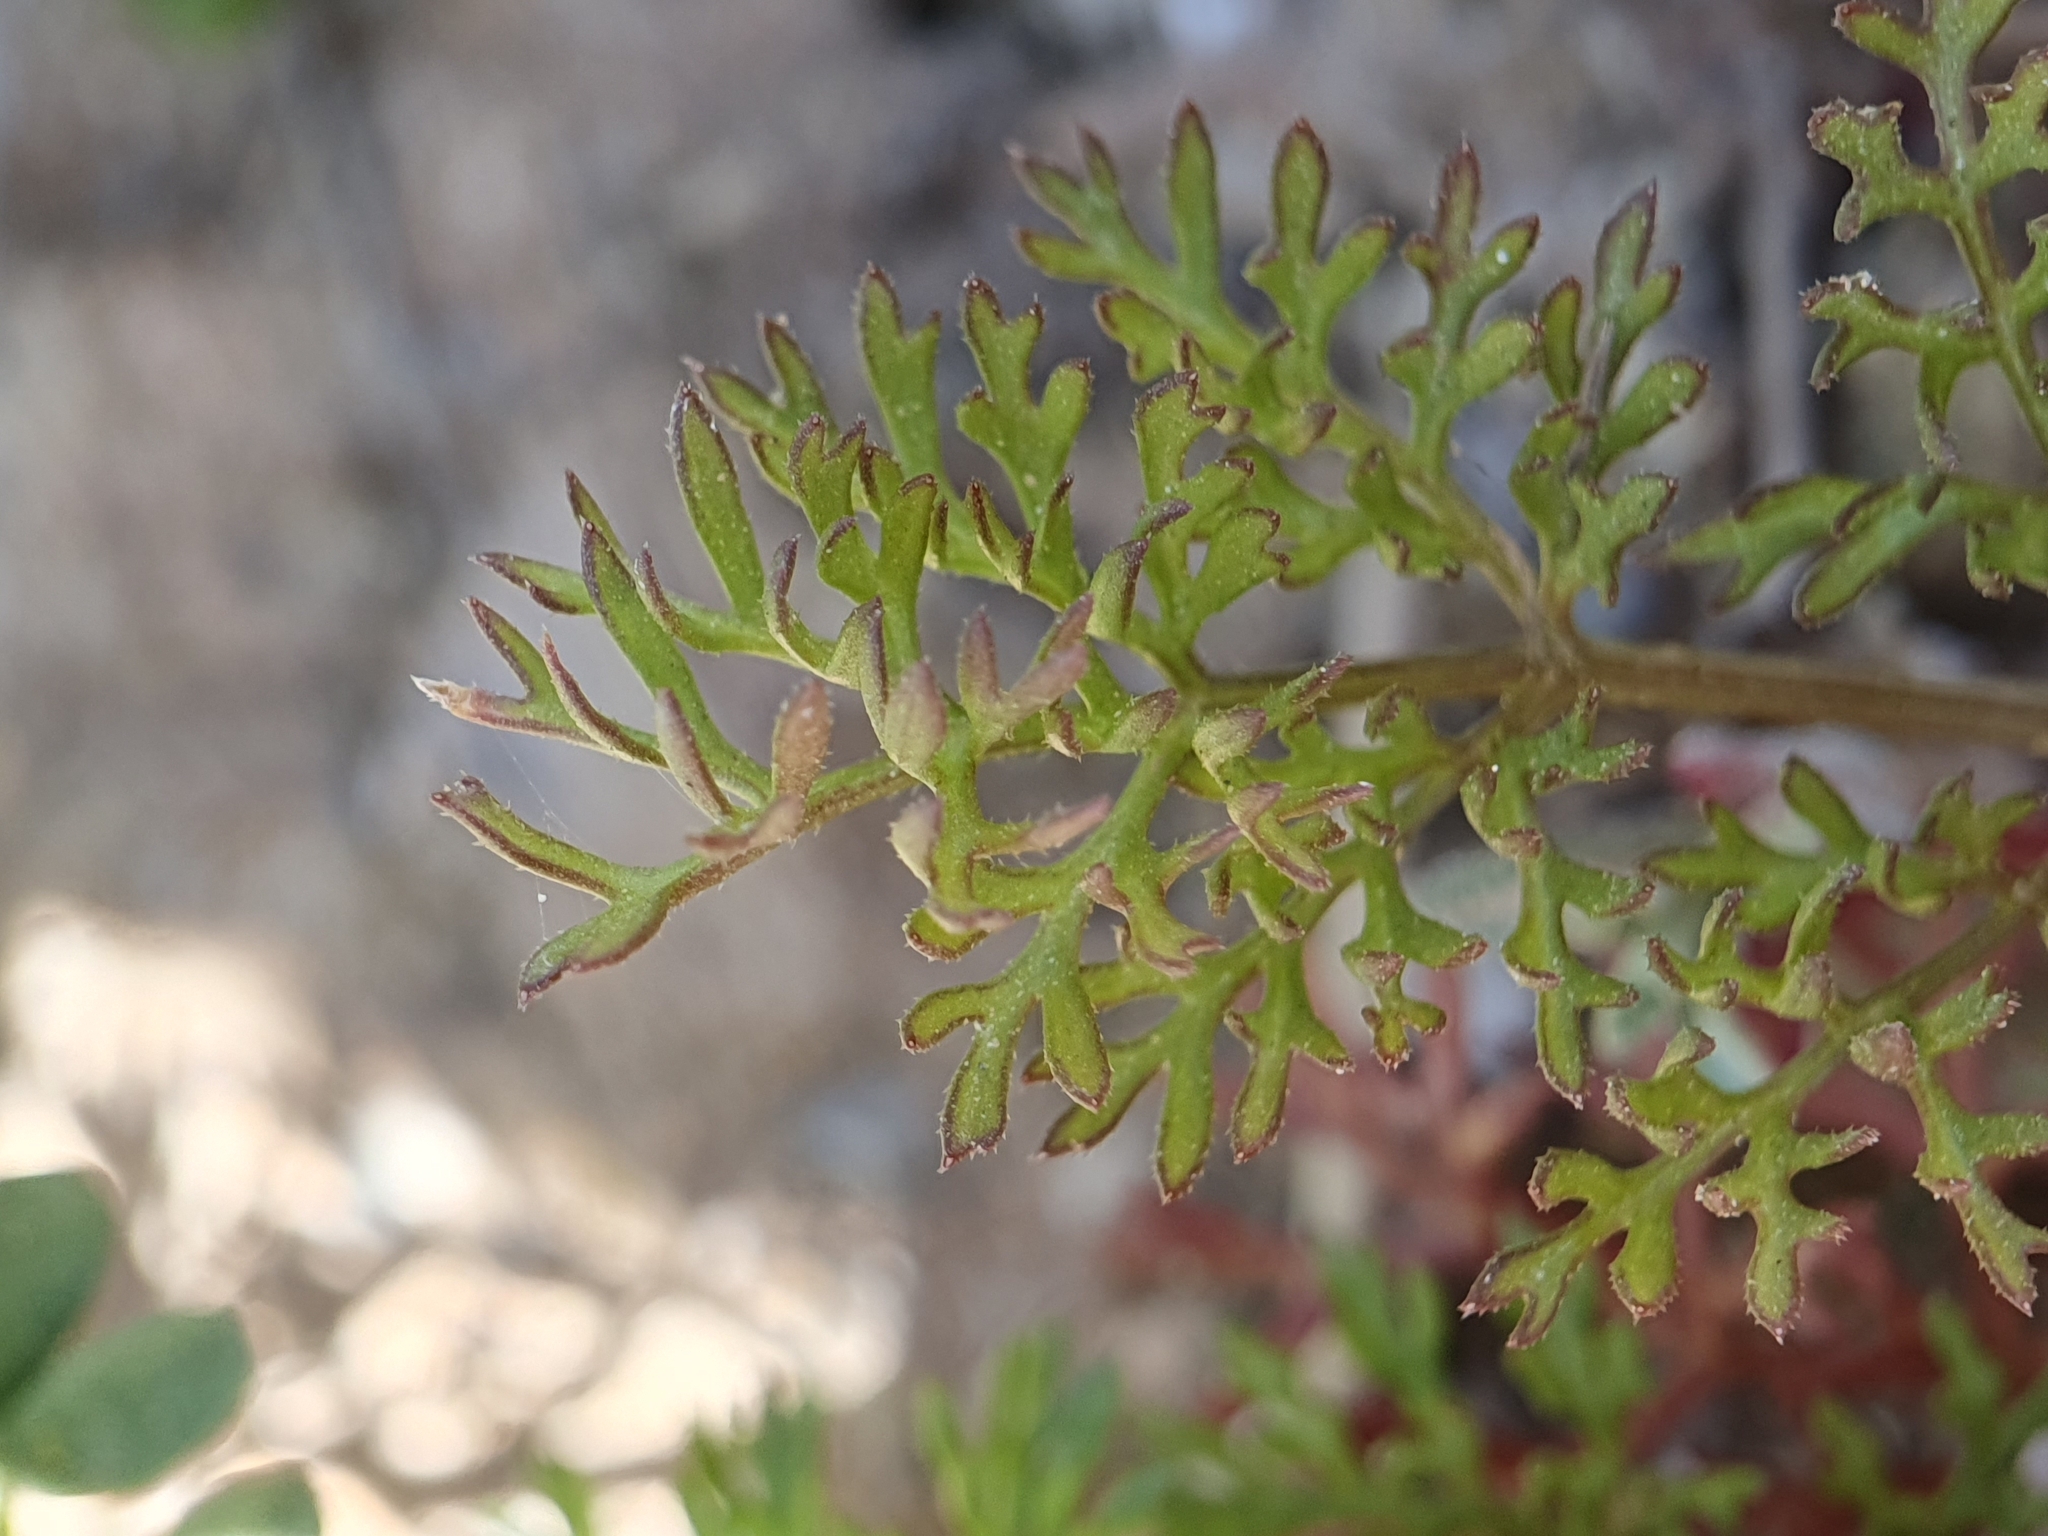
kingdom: Plantae
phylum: Tracheophyta
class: Magnoliopsida
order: Apiales
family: Apiaceae
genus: Scandix
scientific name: Scandix pecten-veneris
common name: Shepherd's-needle
